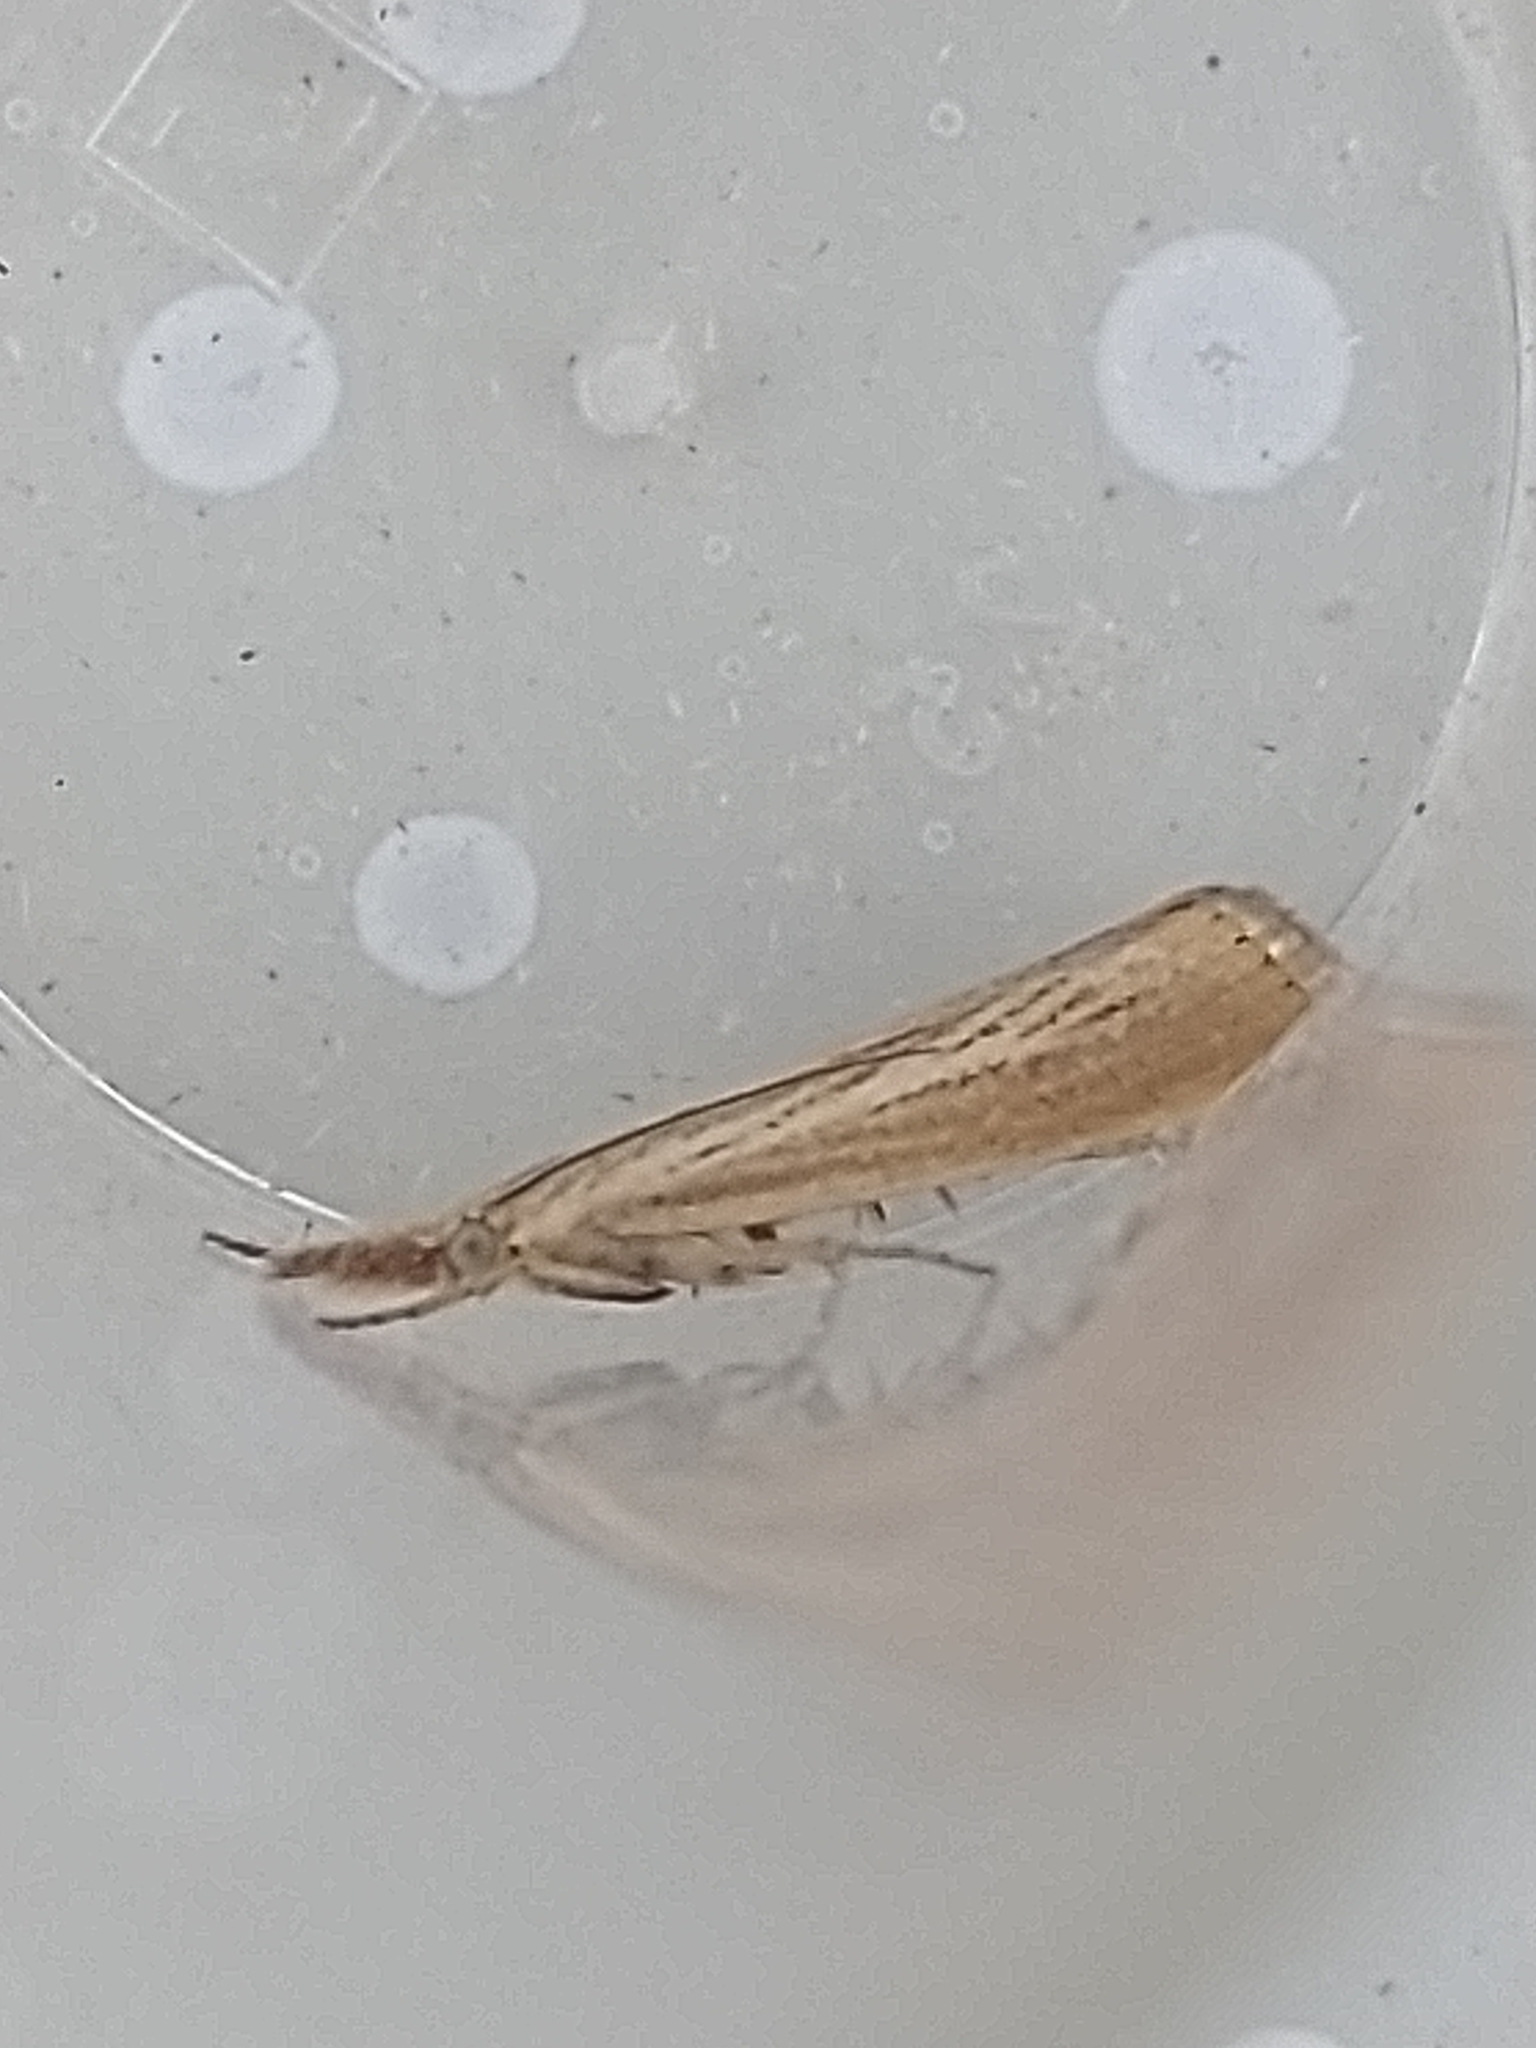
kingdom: Animalia
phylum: Arthropoda
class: Insecta
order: Lepidoptera
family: Crambidae
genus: Agriphila
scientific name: Agriphila straminella
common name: Straw grass-veneer
